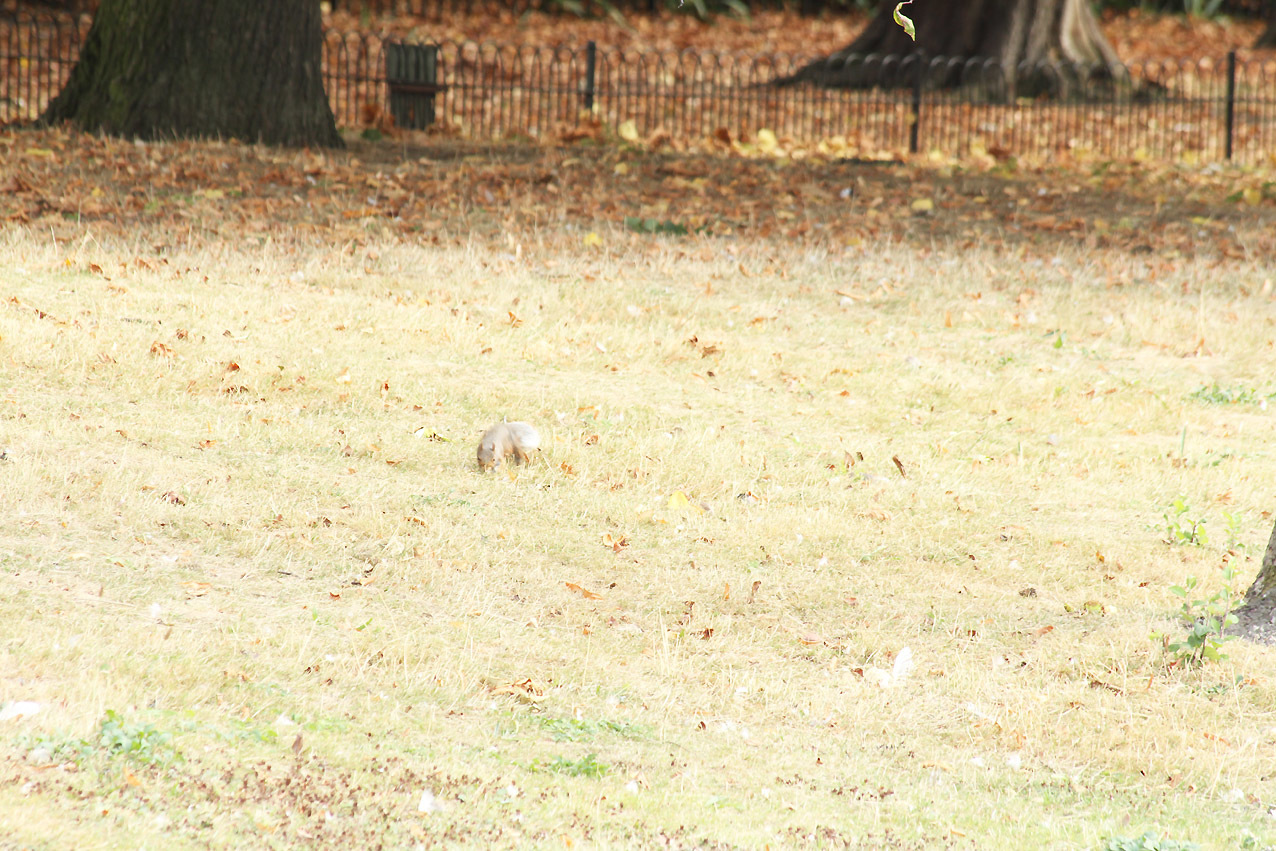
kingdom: Animalia
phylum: Chordata
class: Mammalia
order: Rodentia
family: Sciuridae
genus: Sciurus
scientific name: Sciurus carolinensis
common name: Eastern gray squirrel
